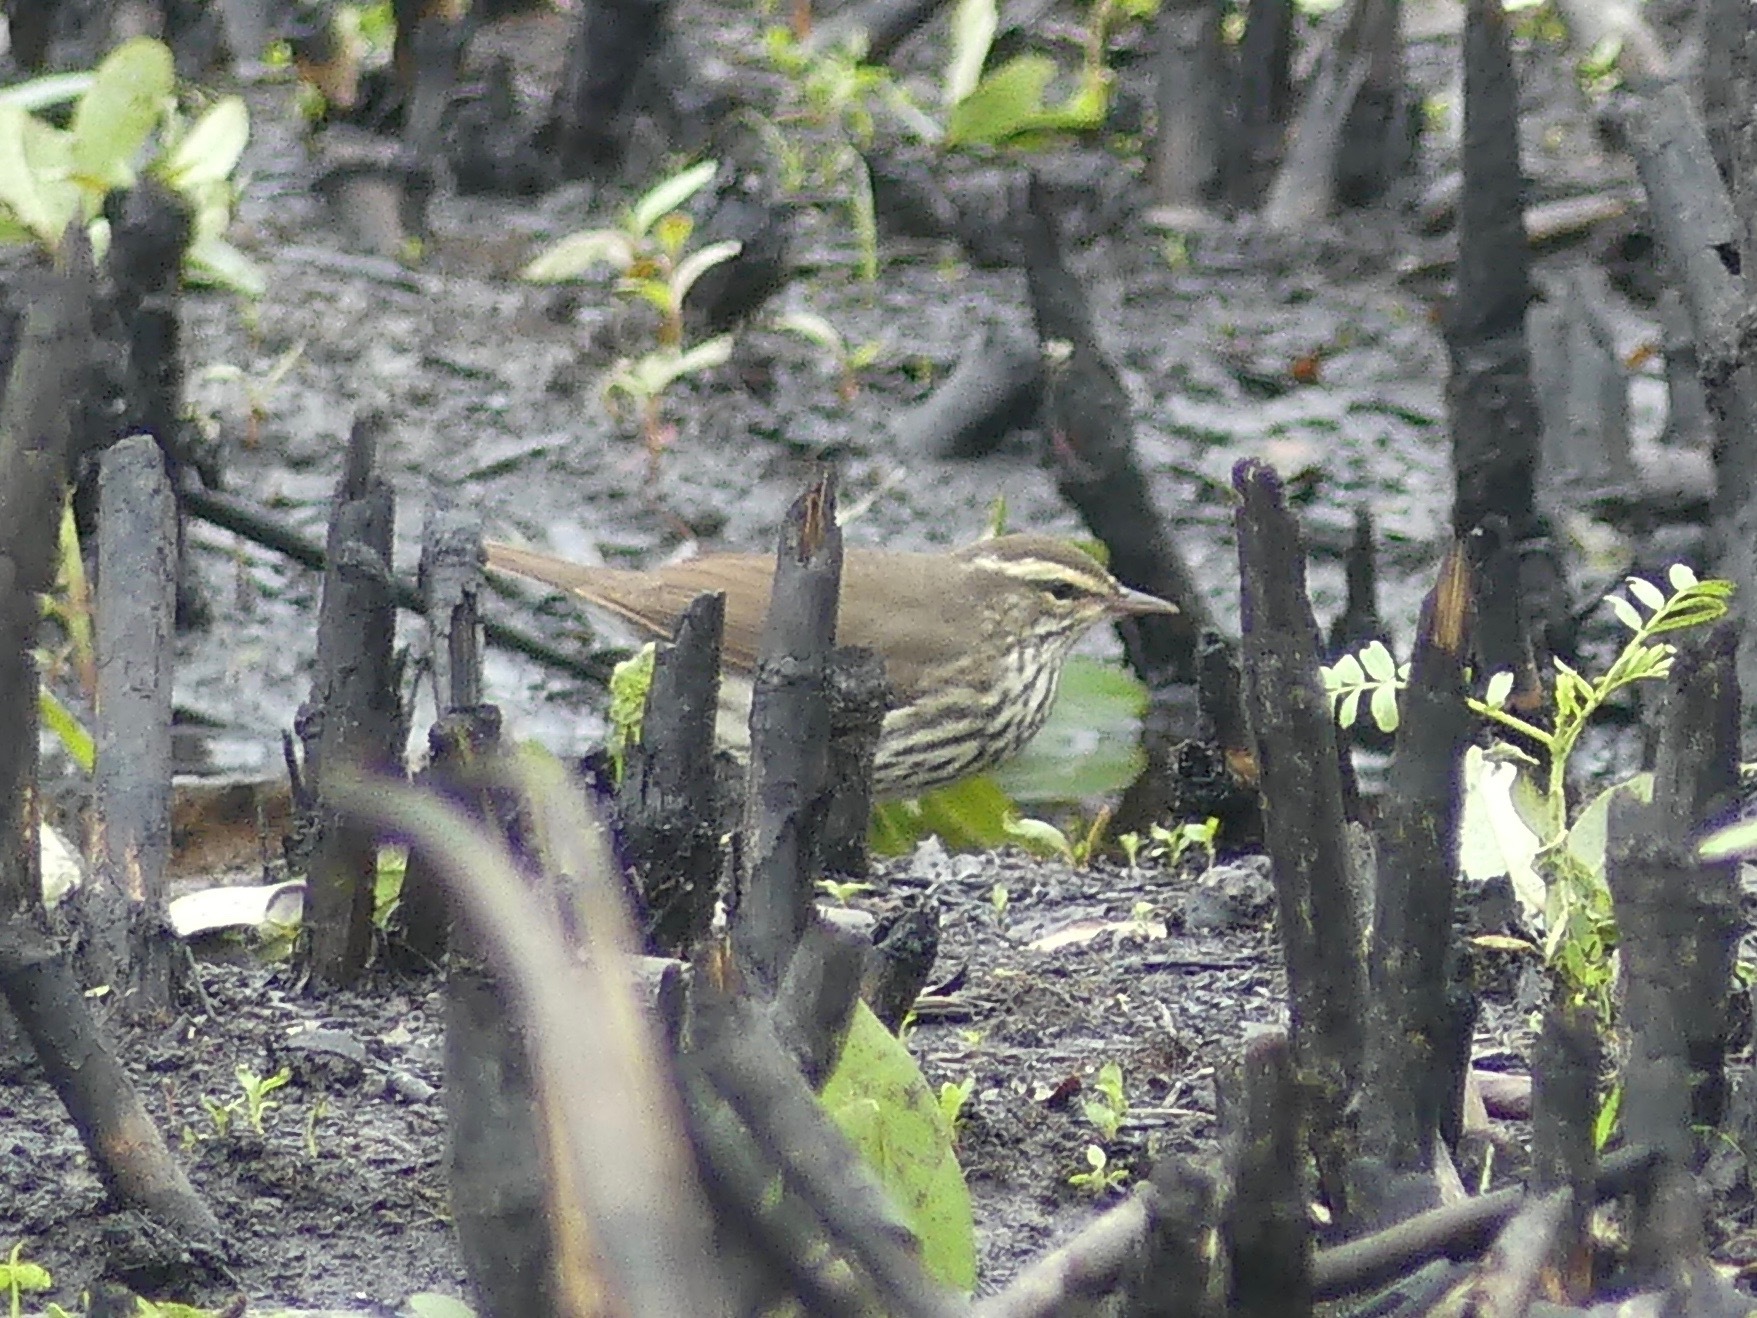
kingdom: Animalia
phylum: Chordata
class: Aves
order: Passeriformes
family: Parulidae
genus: Parkesia
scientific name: Parkesia noveboracensis
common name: Northern waterthrush
